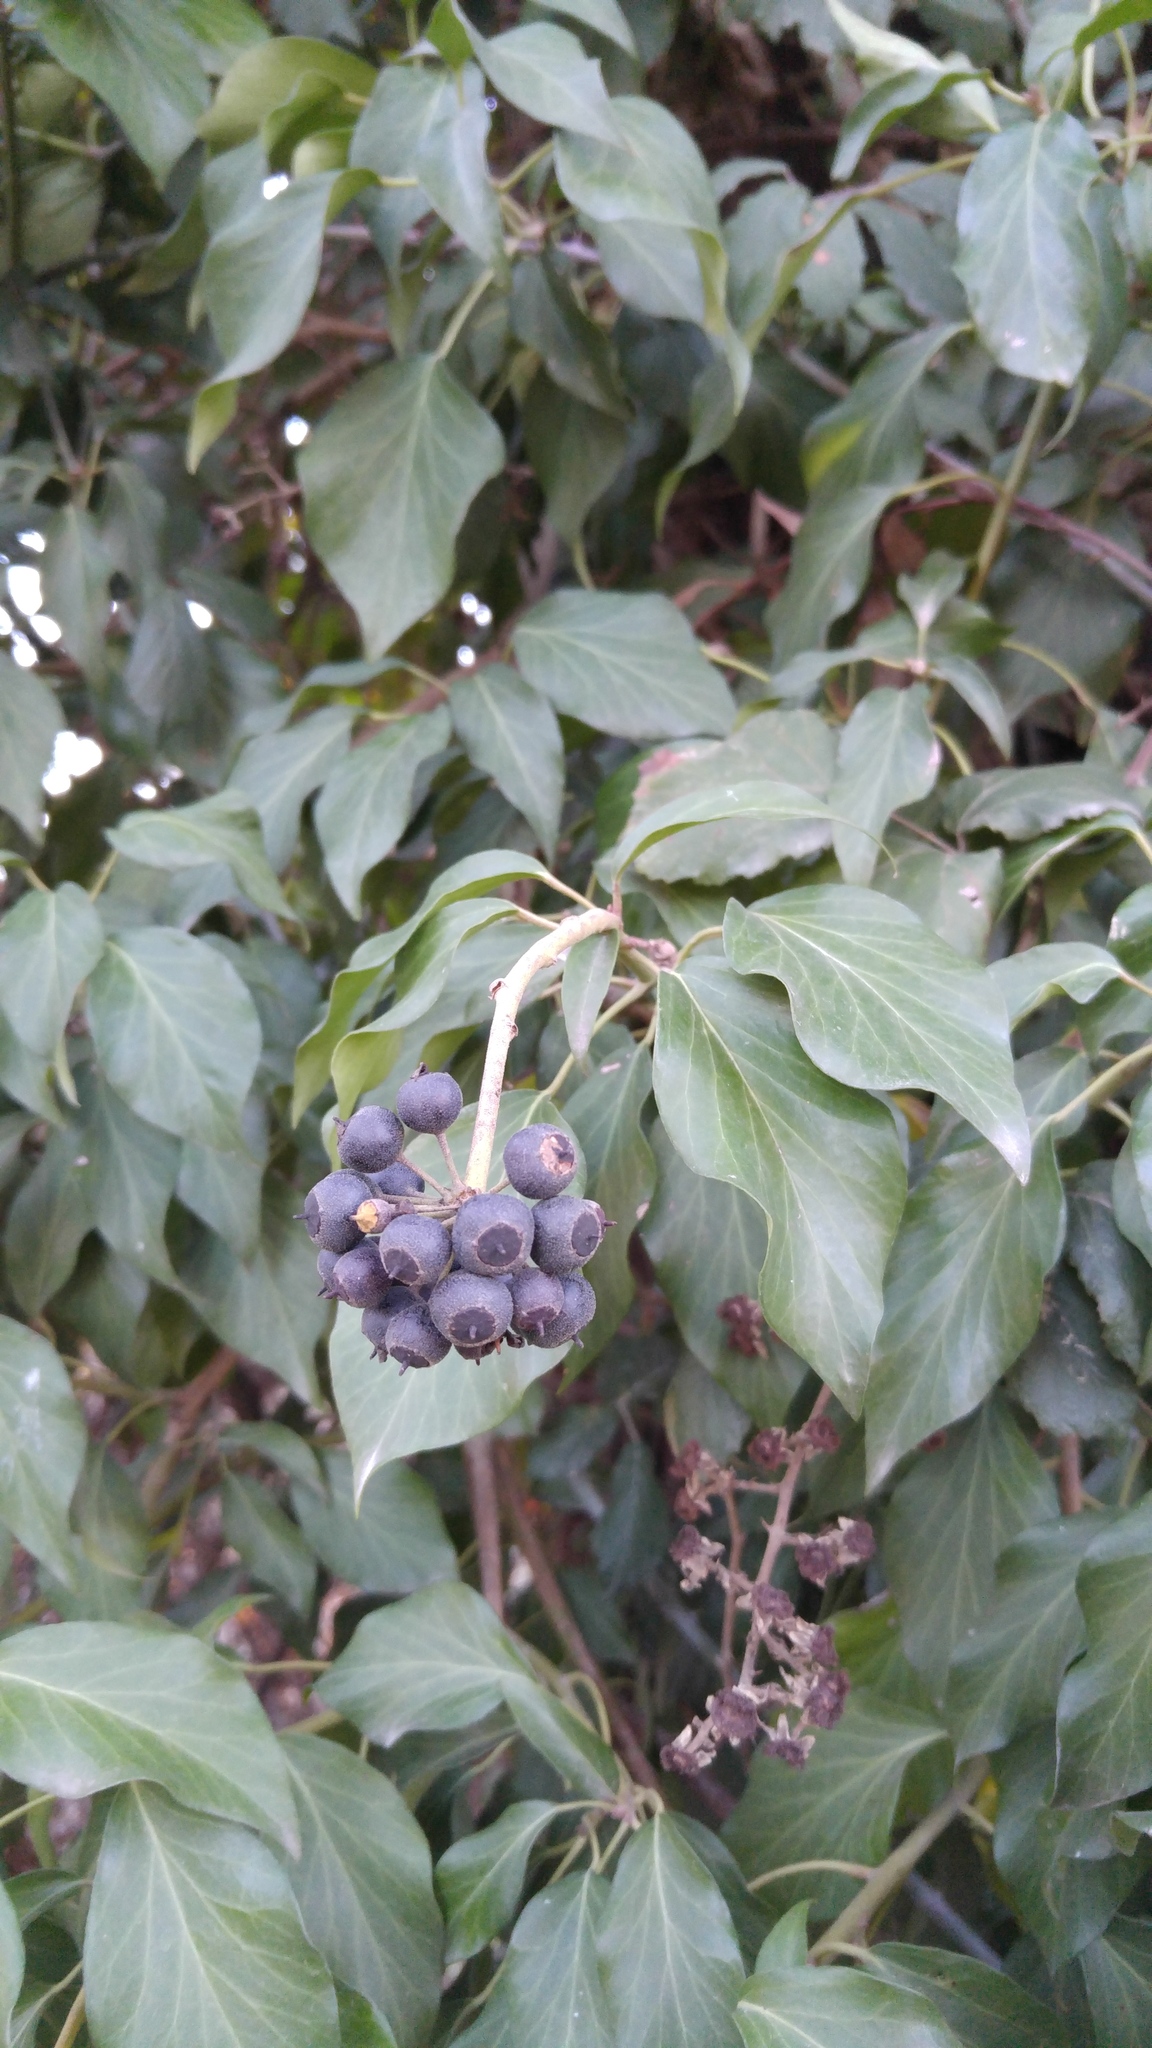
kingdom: Plantae
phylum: Tracheophyta
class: Magnoliopsida
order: Apiales
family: Araliaceae
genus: Hedera
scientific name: Hedera helix
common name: Ivy
